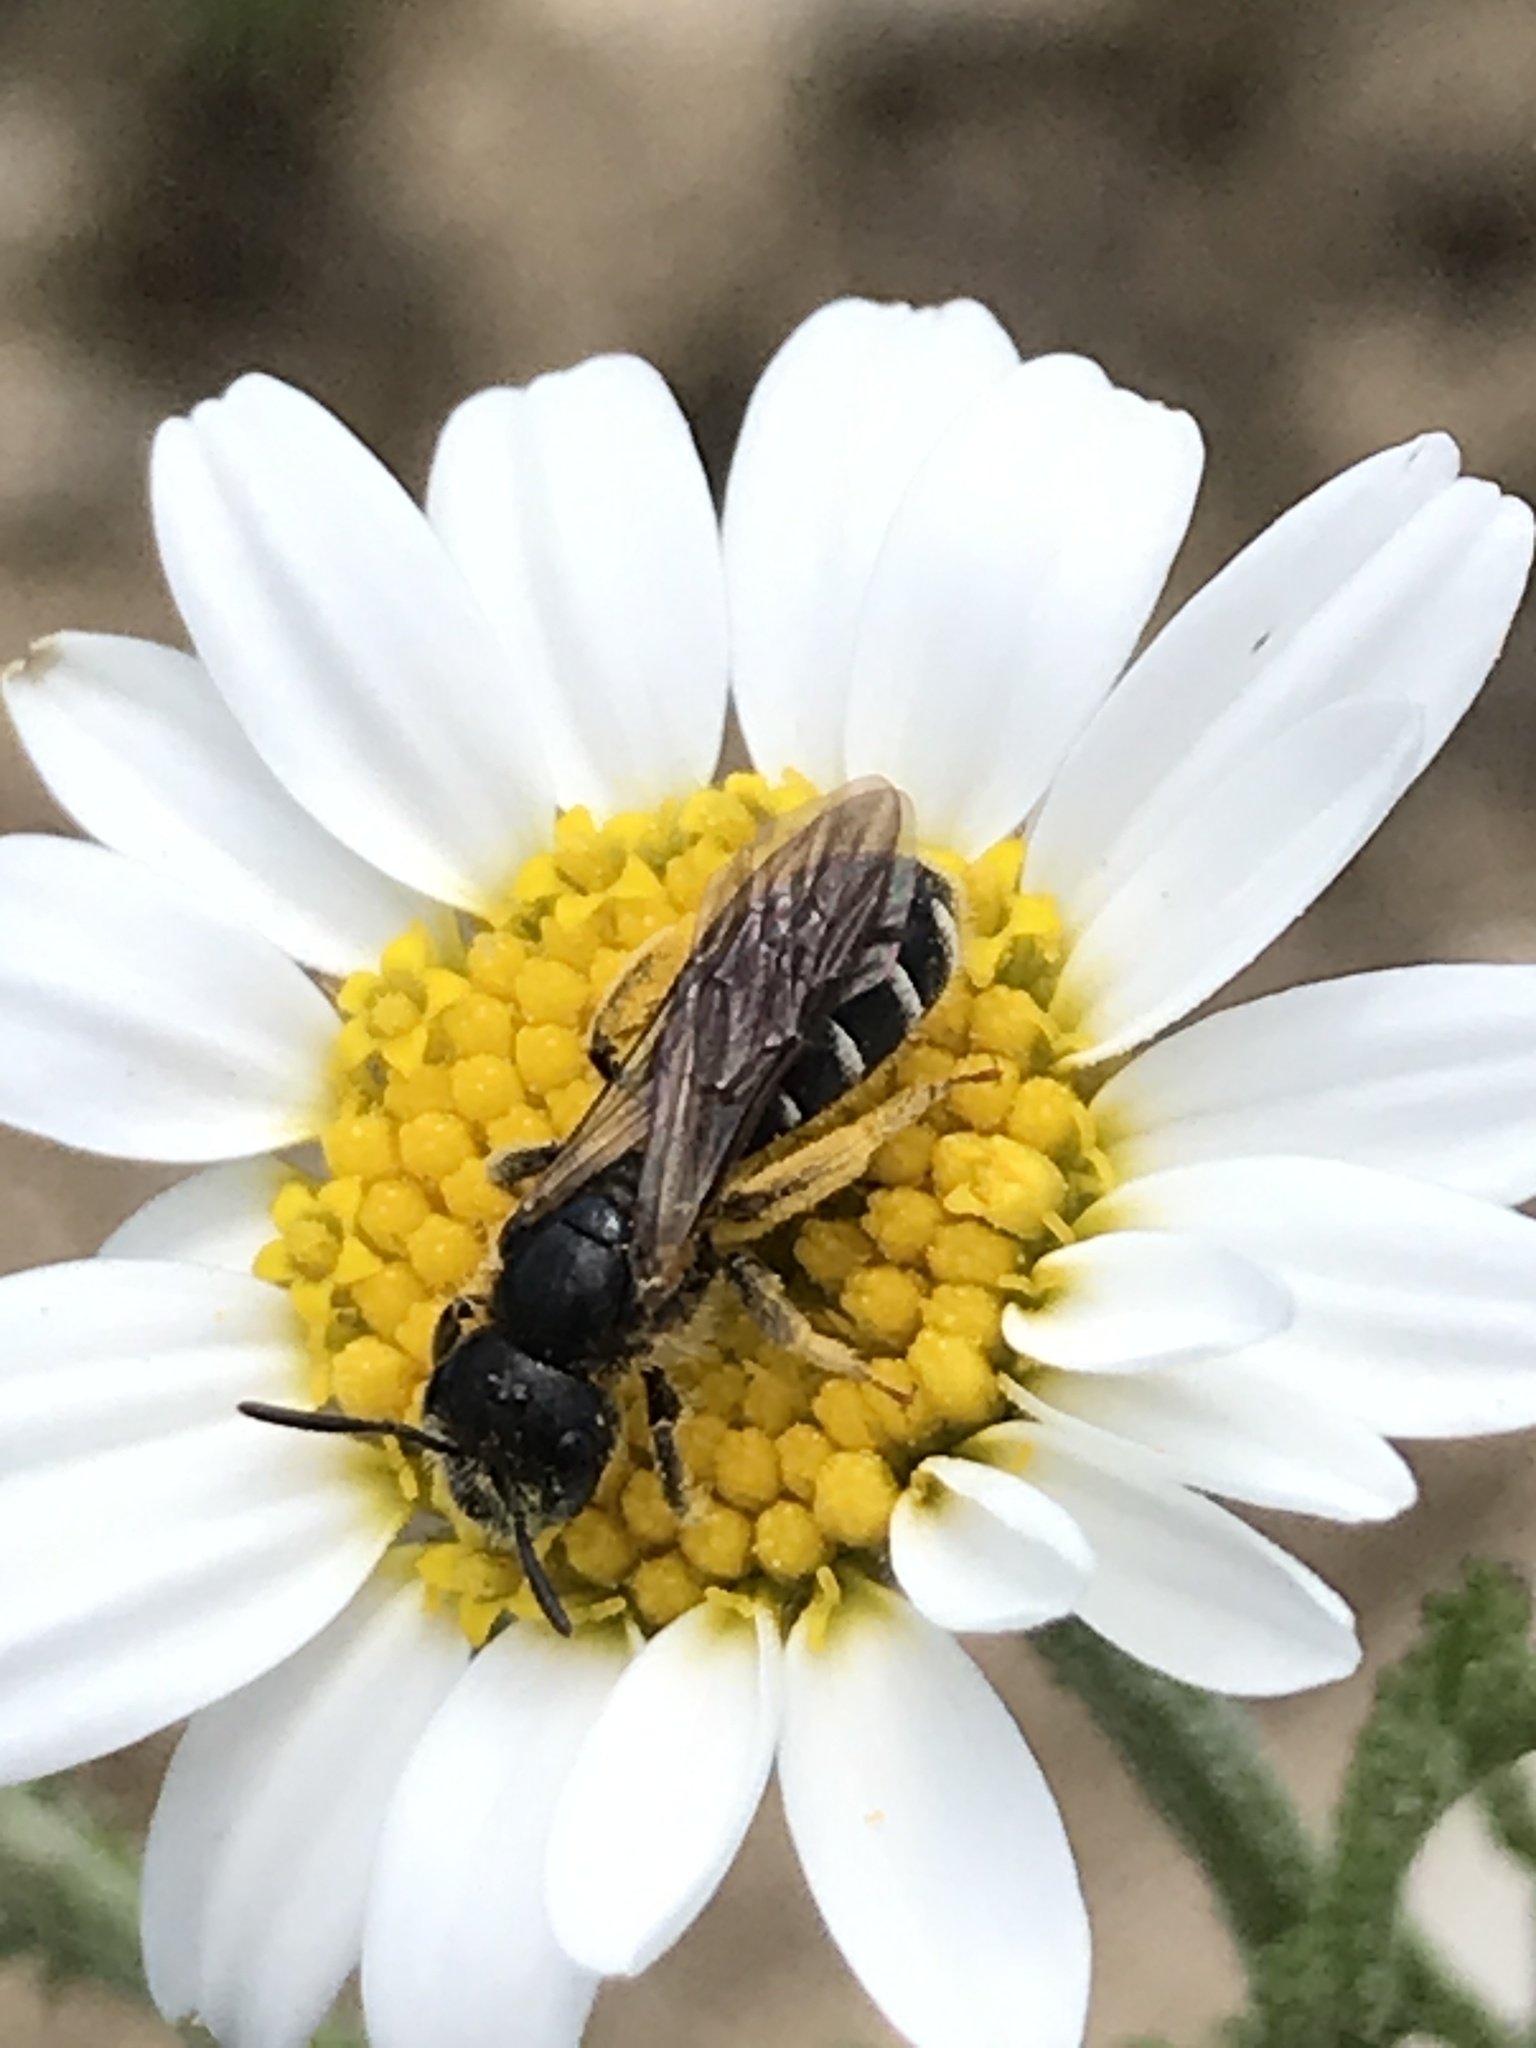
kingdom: Animalia
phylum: Arthropoda
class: Insecta
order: Hymenoptera
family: Halictidae
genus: Halictus
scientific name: Halictus maculatus
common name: Box-heades furrow bee
